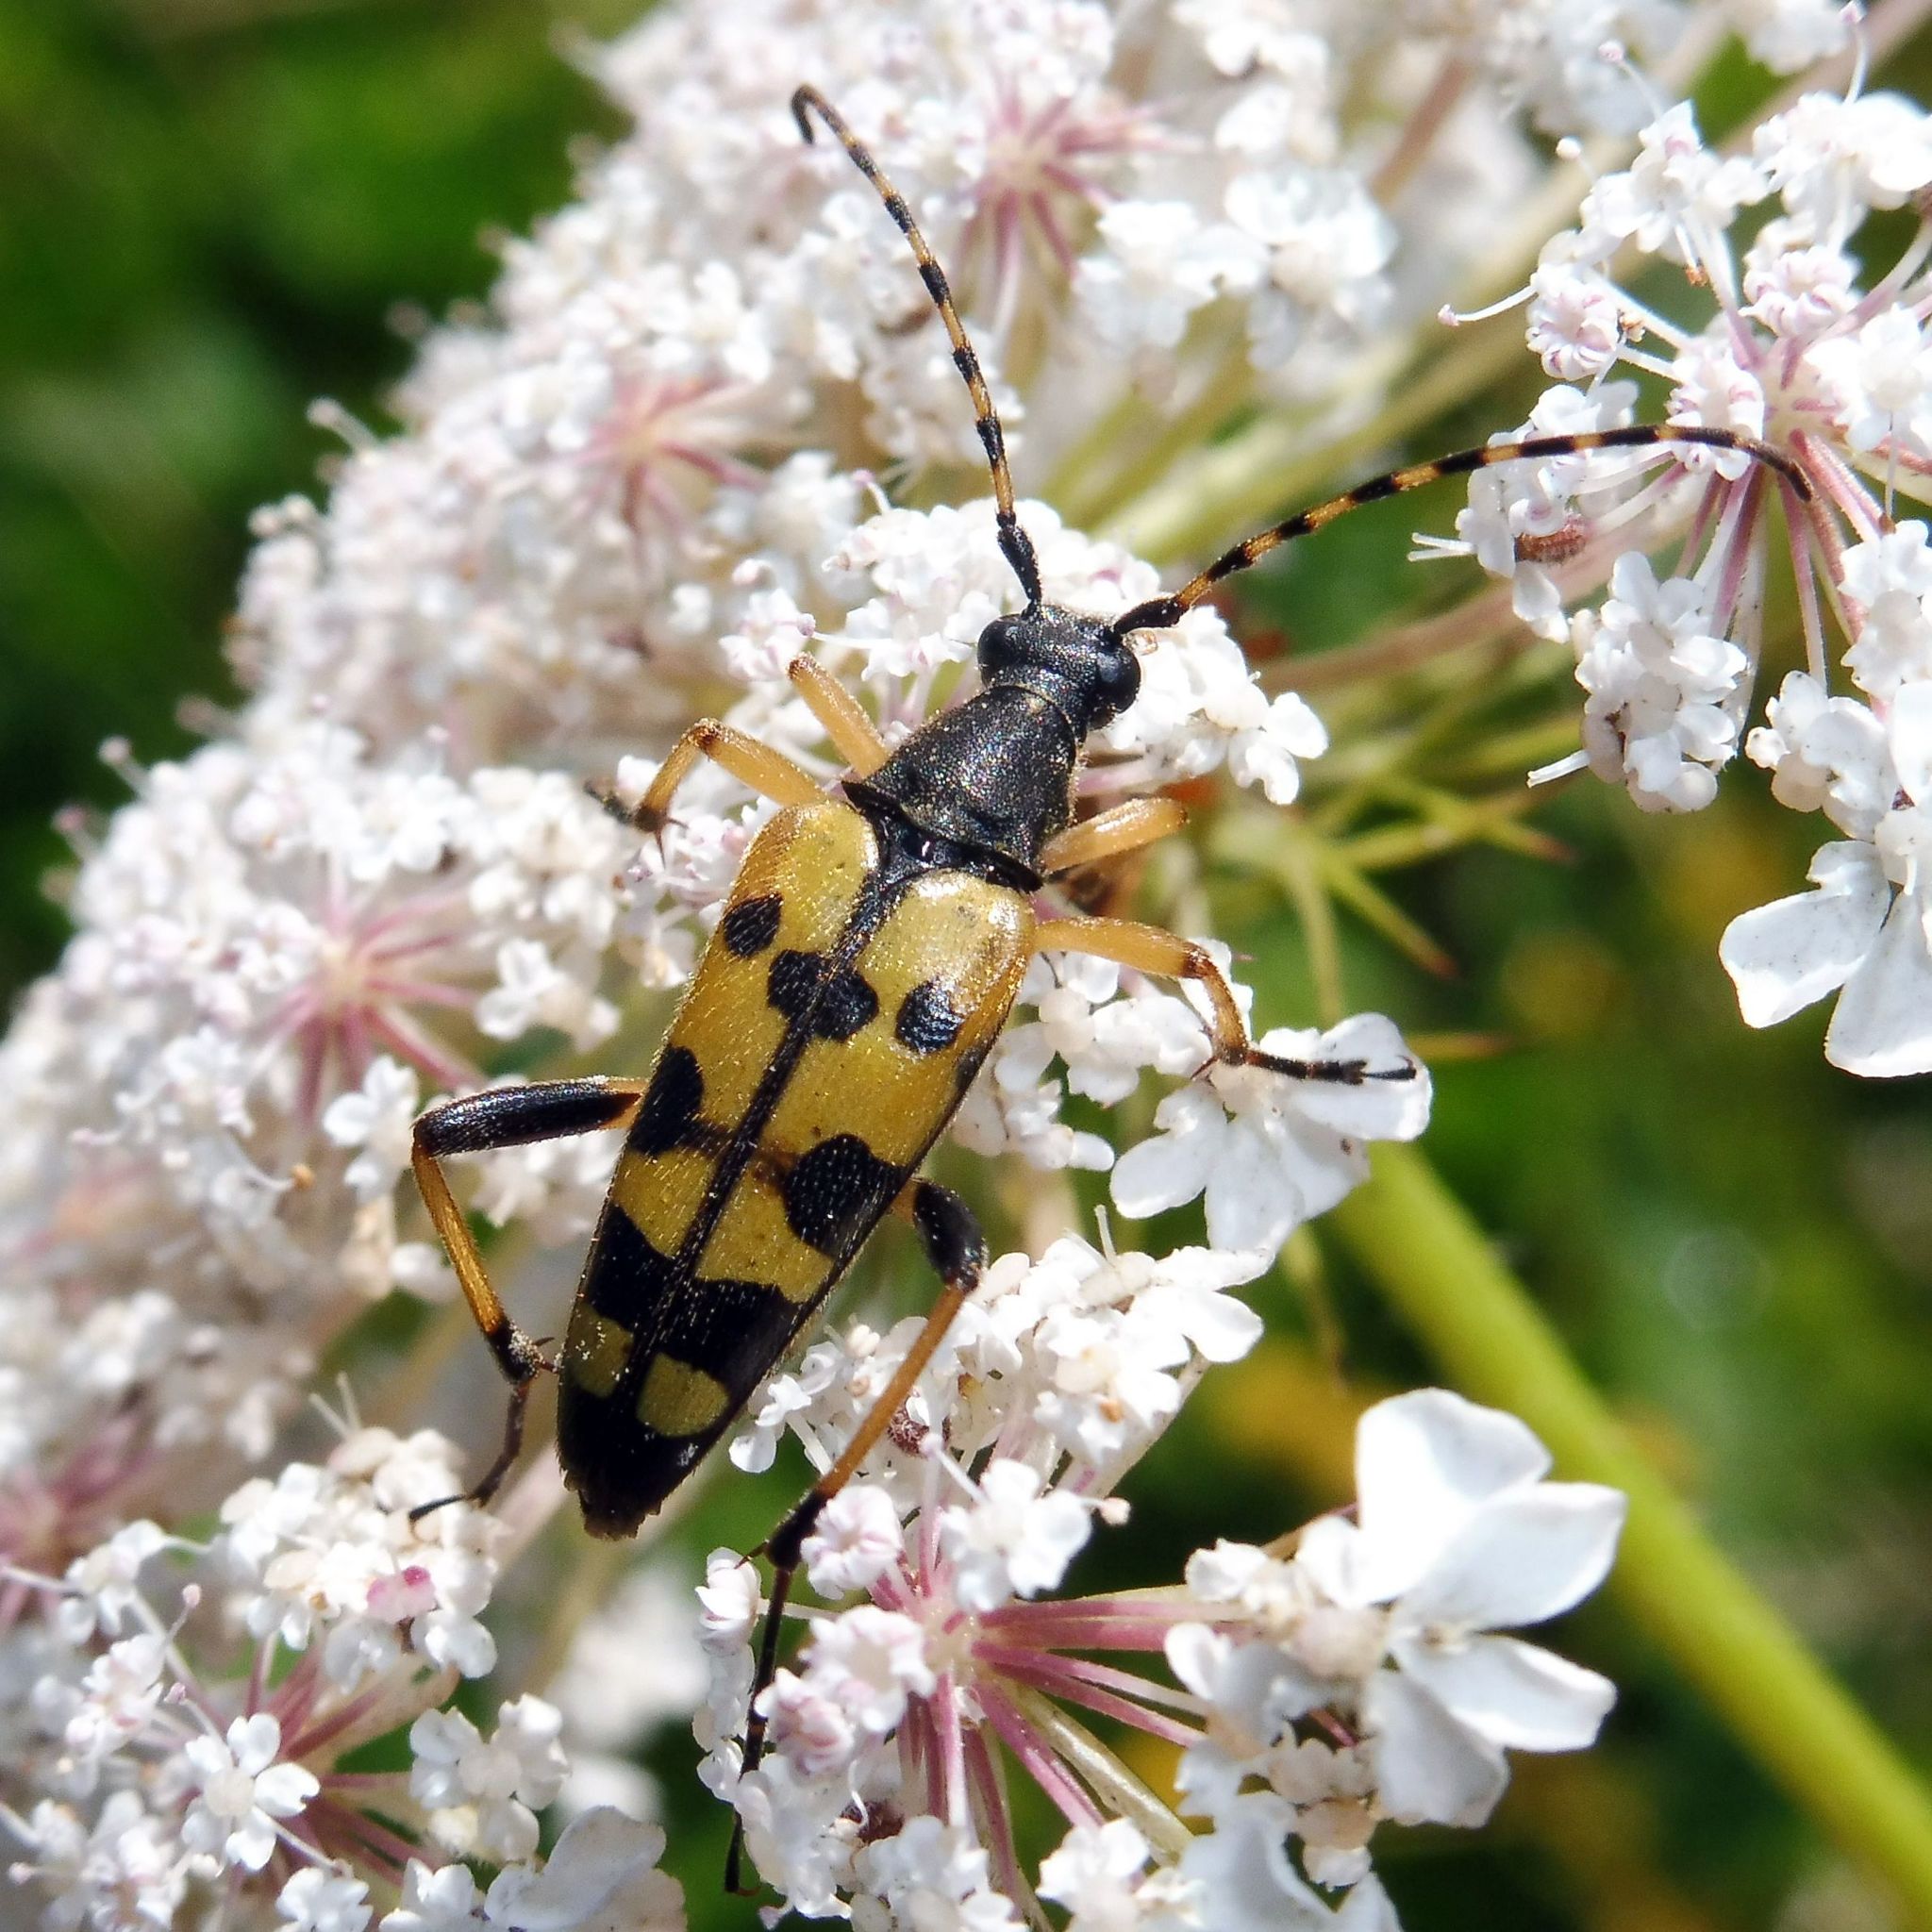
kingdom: Animalia
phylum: Arthropoda
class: Insecta
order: Coleoptera
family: Cerambycidae
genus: Rutpela
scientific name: Rutpela maculata
